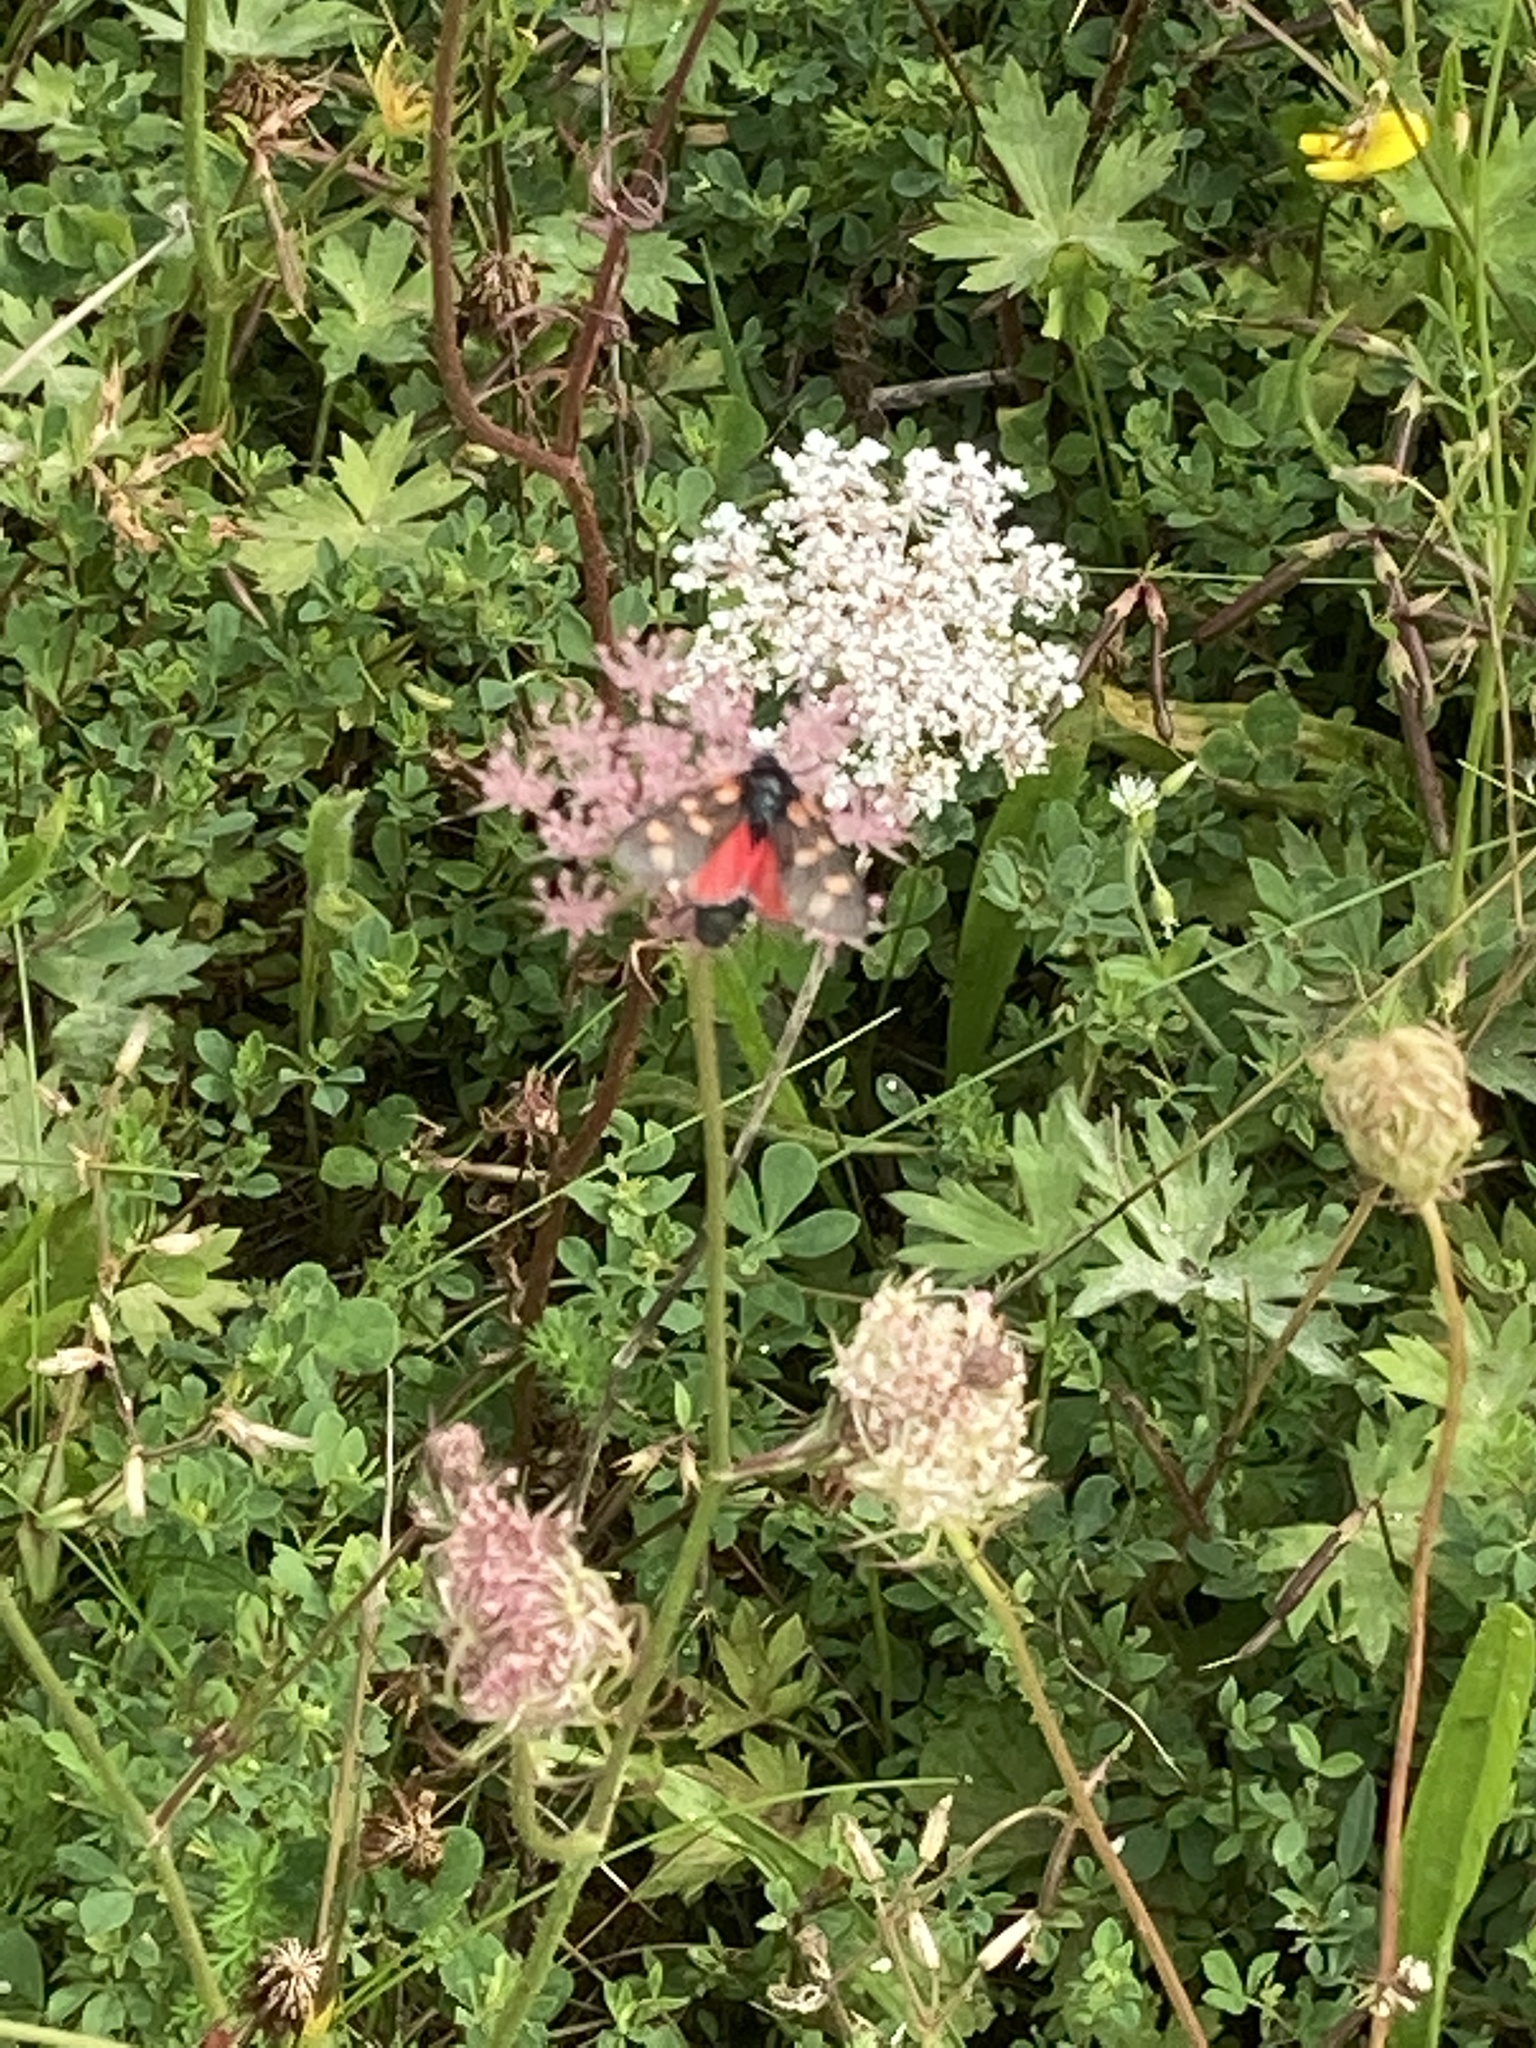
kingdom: Animalia
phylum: Arthropoda
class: Insecta
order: Lepidoptera
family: Zygaenidae
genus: Zygaena
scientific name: Zygaena filipendulae
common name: Six-spot burnet
